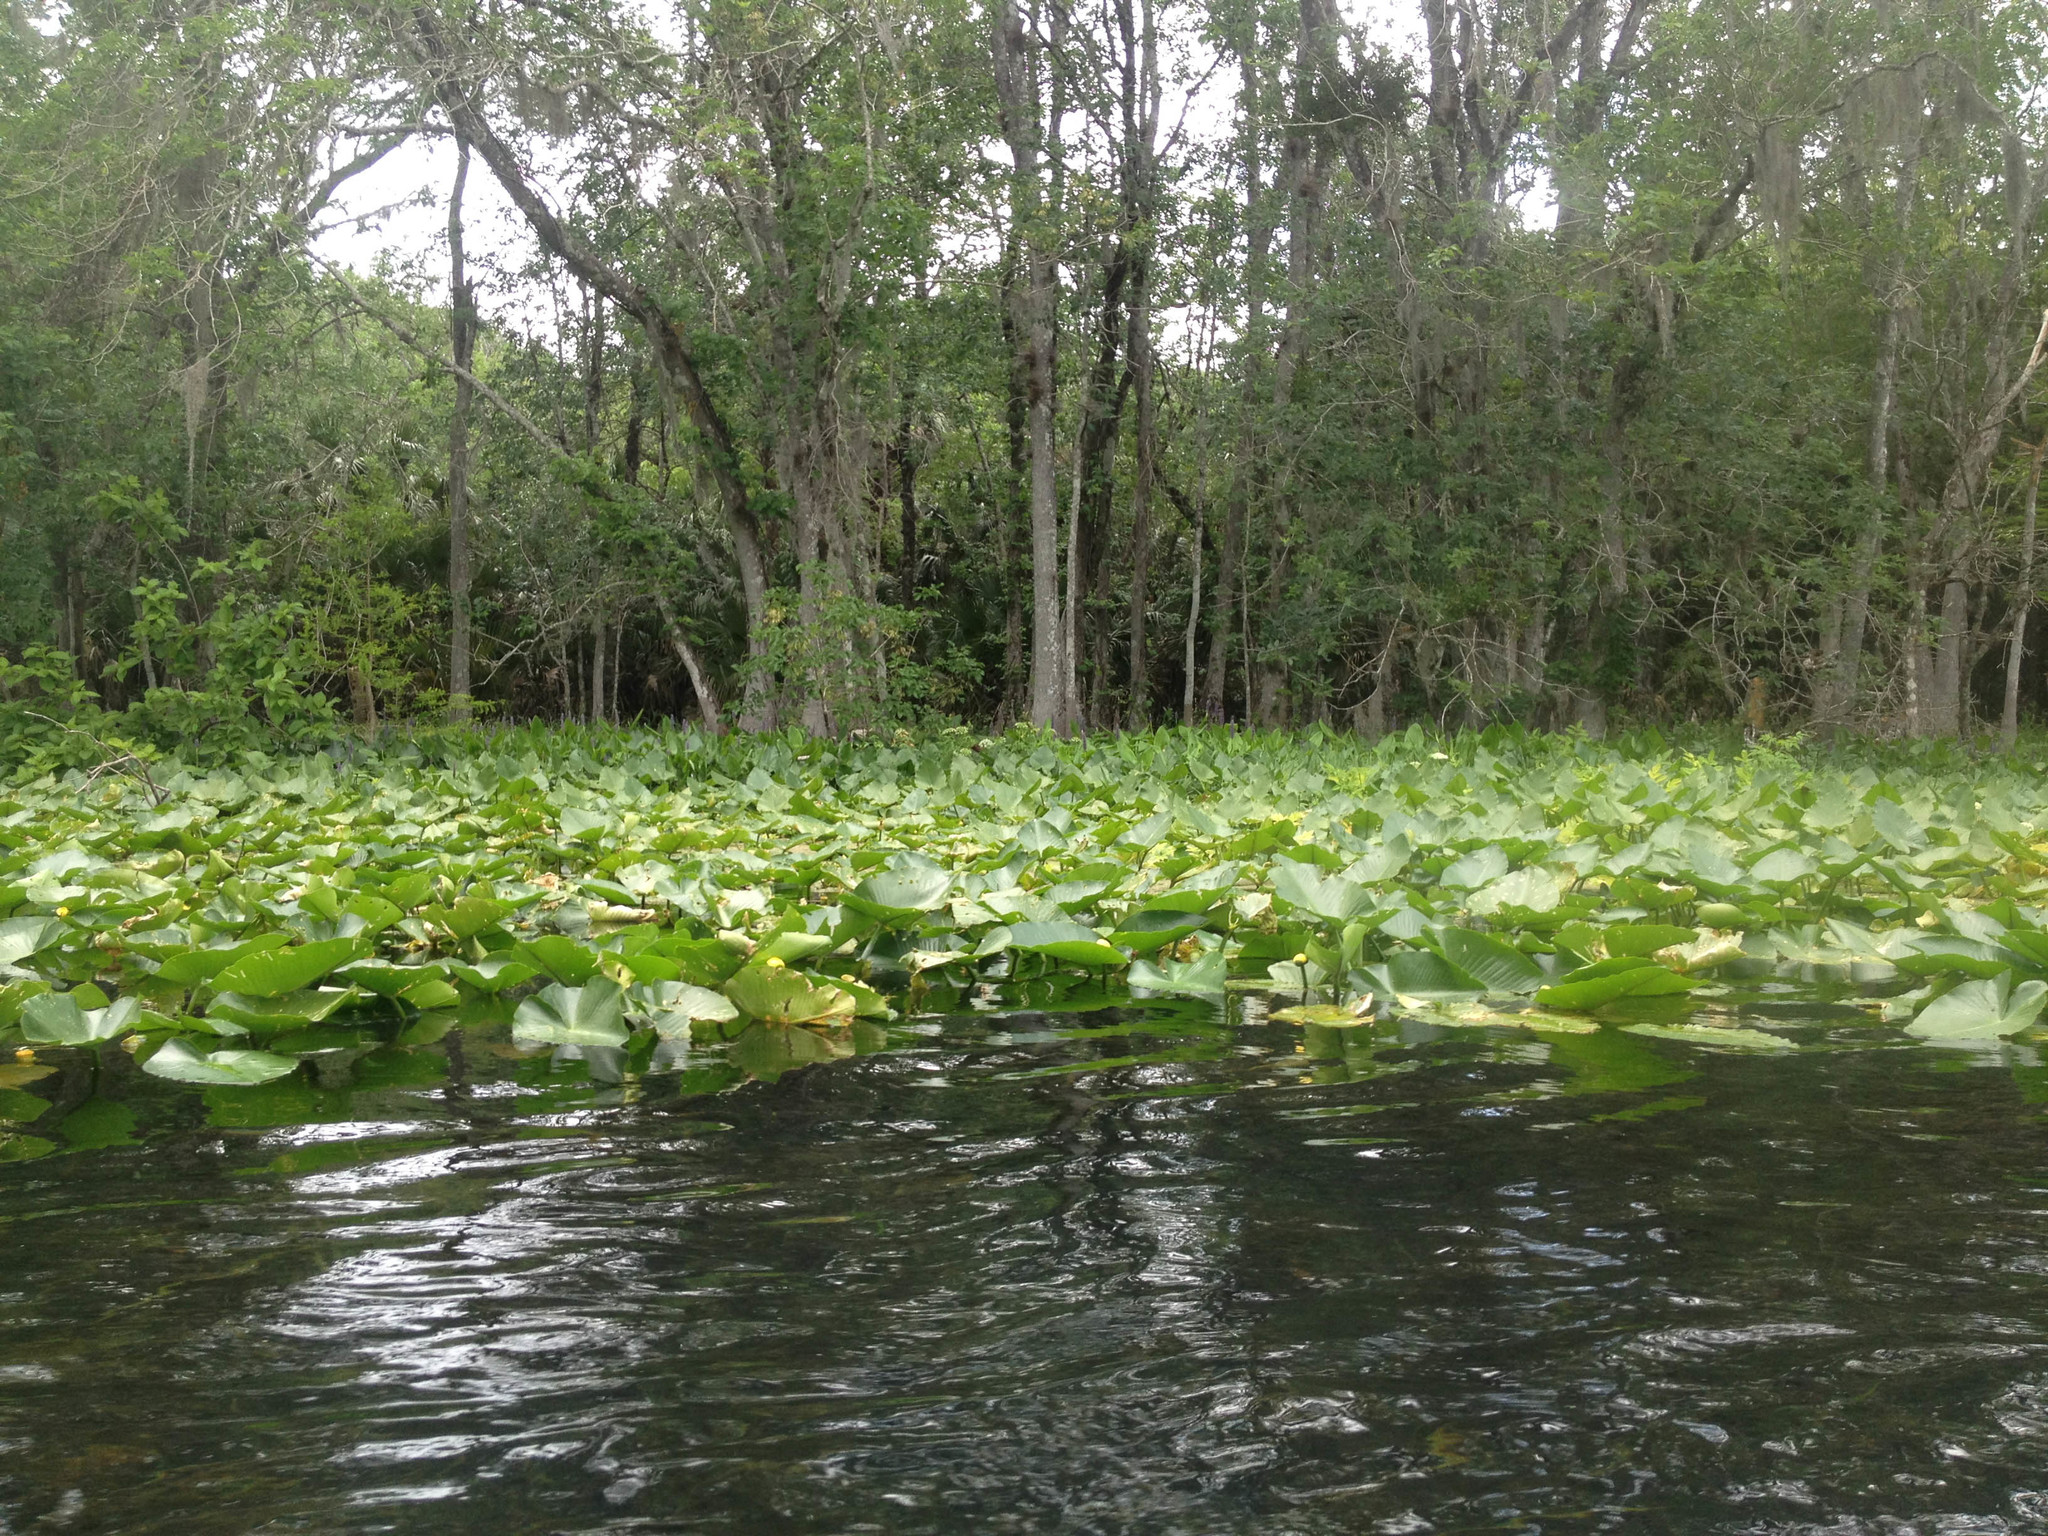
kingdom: Plantae
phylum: Tracheophyta
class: Magnoliopsida
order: Nymphaeales
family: Nymphaeaceae
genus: Nuphar
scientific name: Nuphar advena
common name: Spatter-dock
